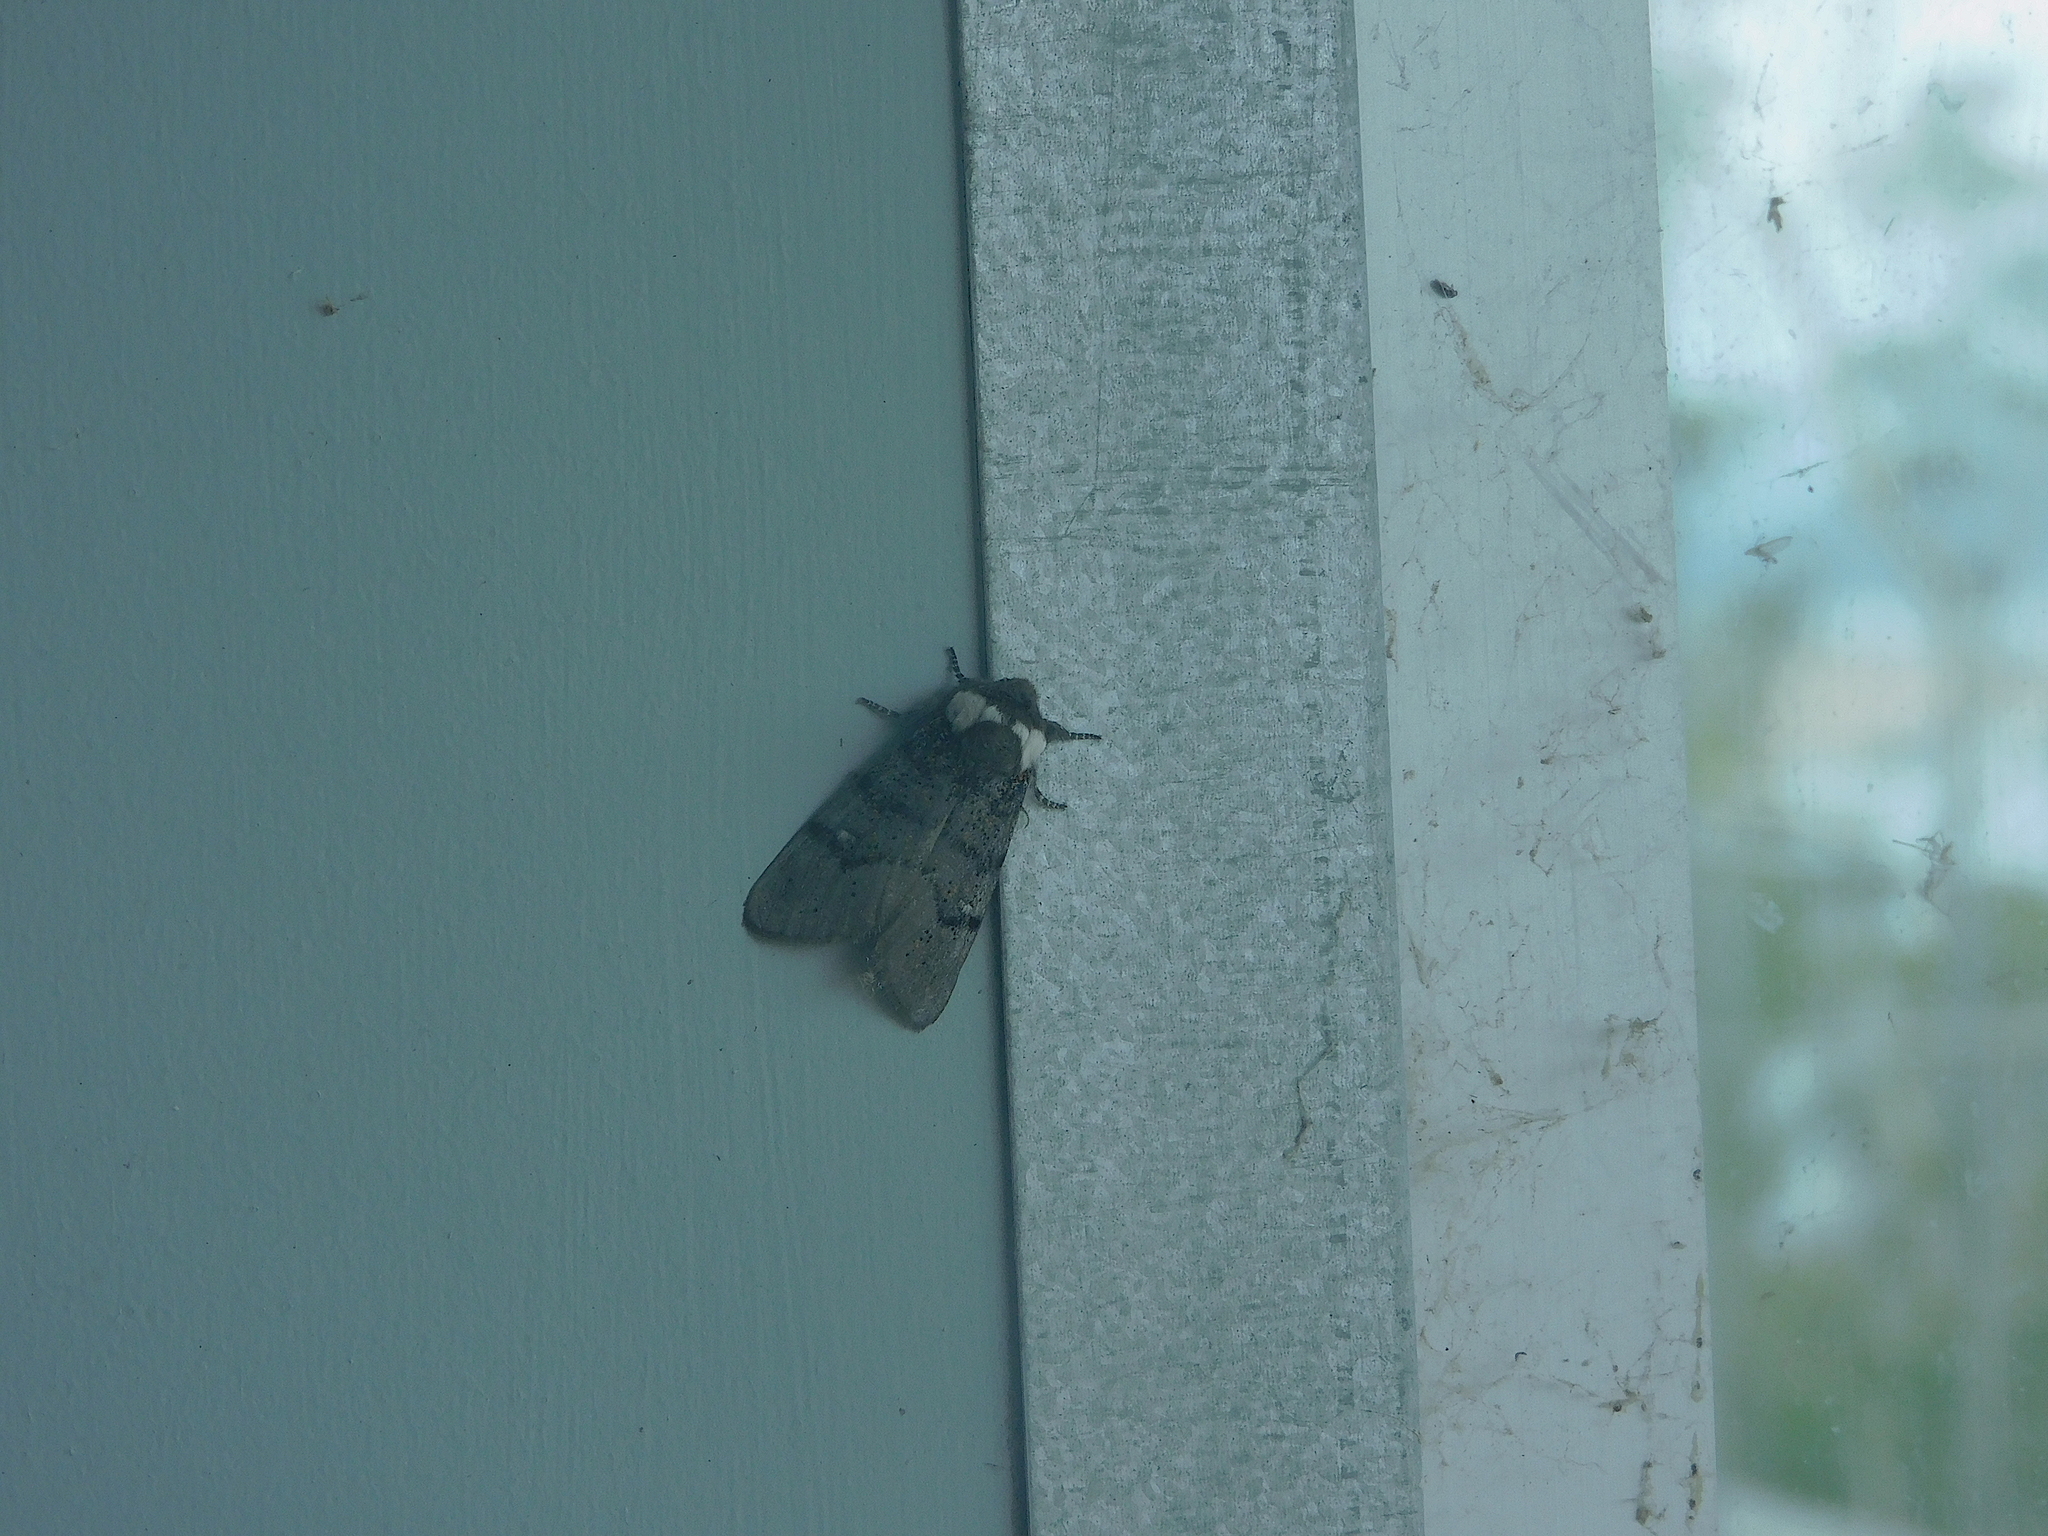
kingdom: Animalia
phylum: Arthropoda
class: Insecta
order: Lepidoptera
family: Oenosandridae
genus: Oenosandra
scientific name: Oenosandra boisduvalii
